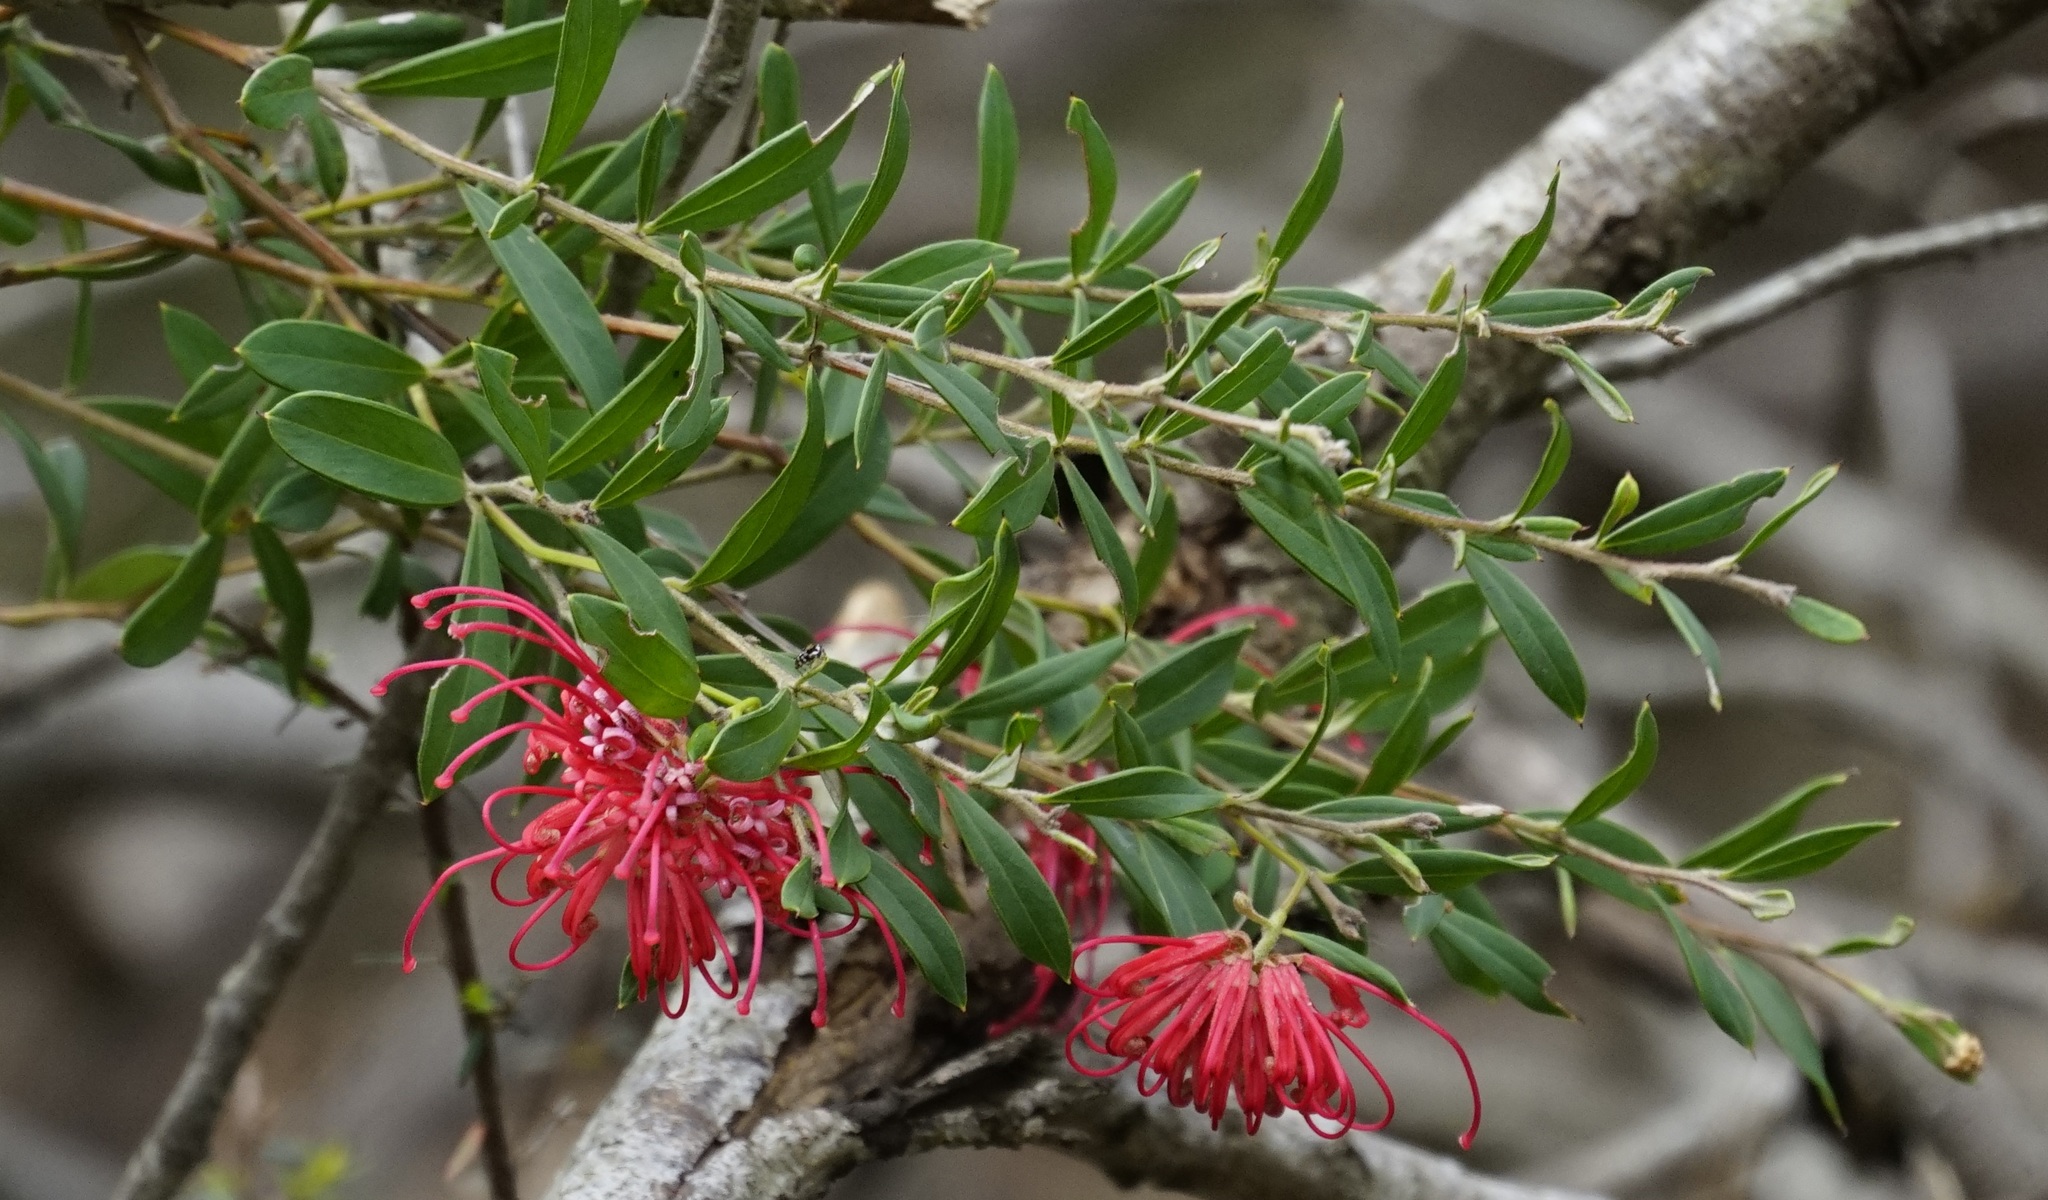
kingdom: Plantae
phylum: Tracheophyta
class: Magnoliopsida
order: Proteales
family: Proteaceae
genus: Grevillea
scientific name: Grevillea speciosa
